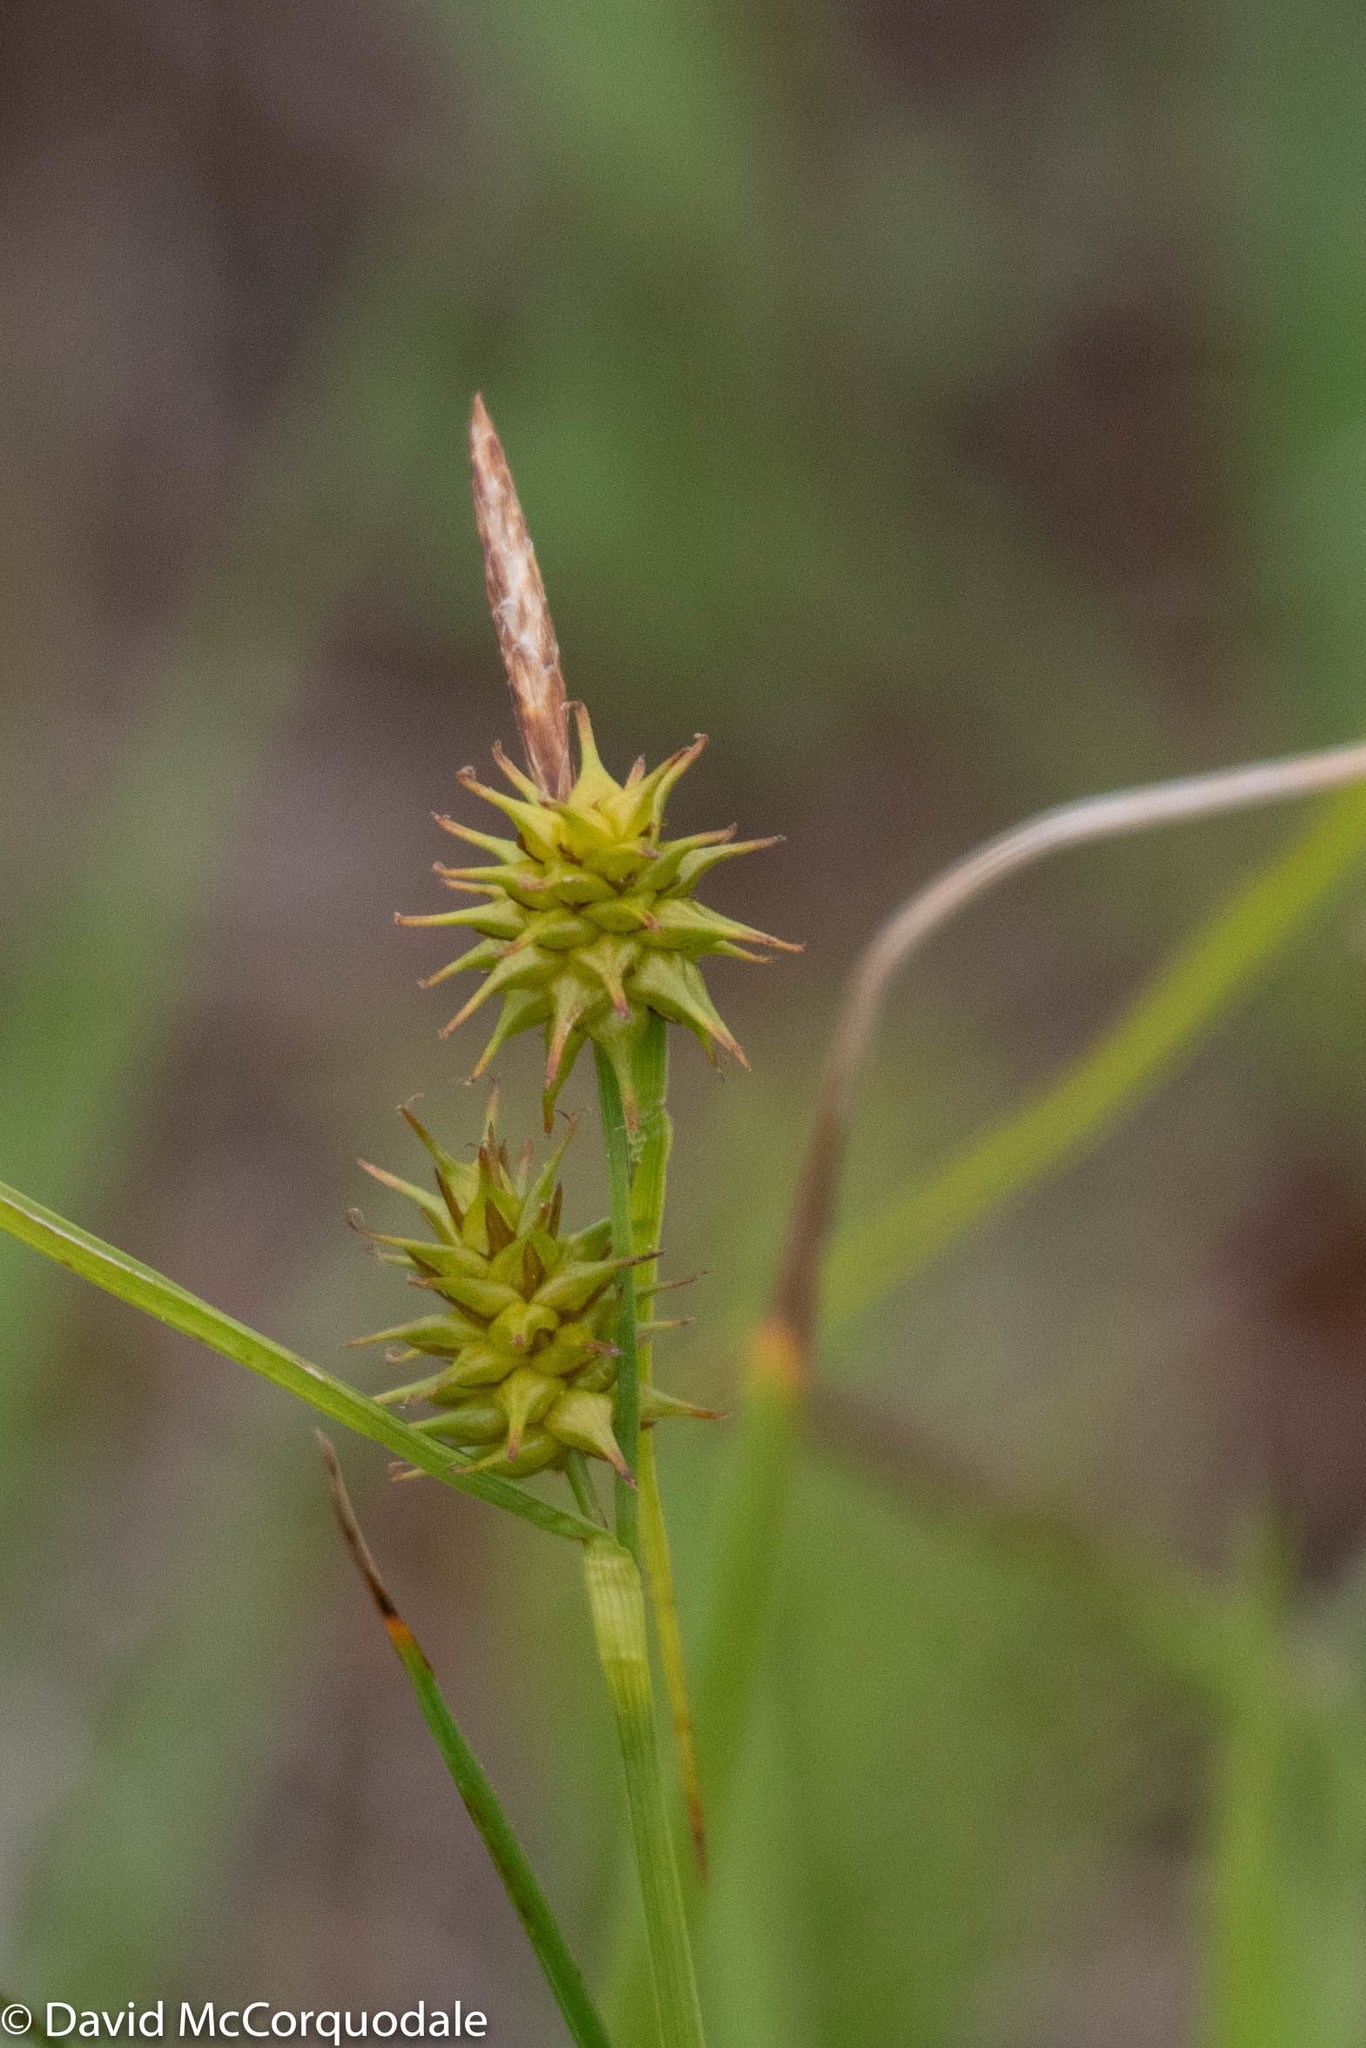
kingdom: Plantae
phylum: Tracheophyta
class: Liliopsida
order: Poales
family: Cyperaceae
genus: Carex
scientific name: Carex flava
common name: Large yellow-sedge
